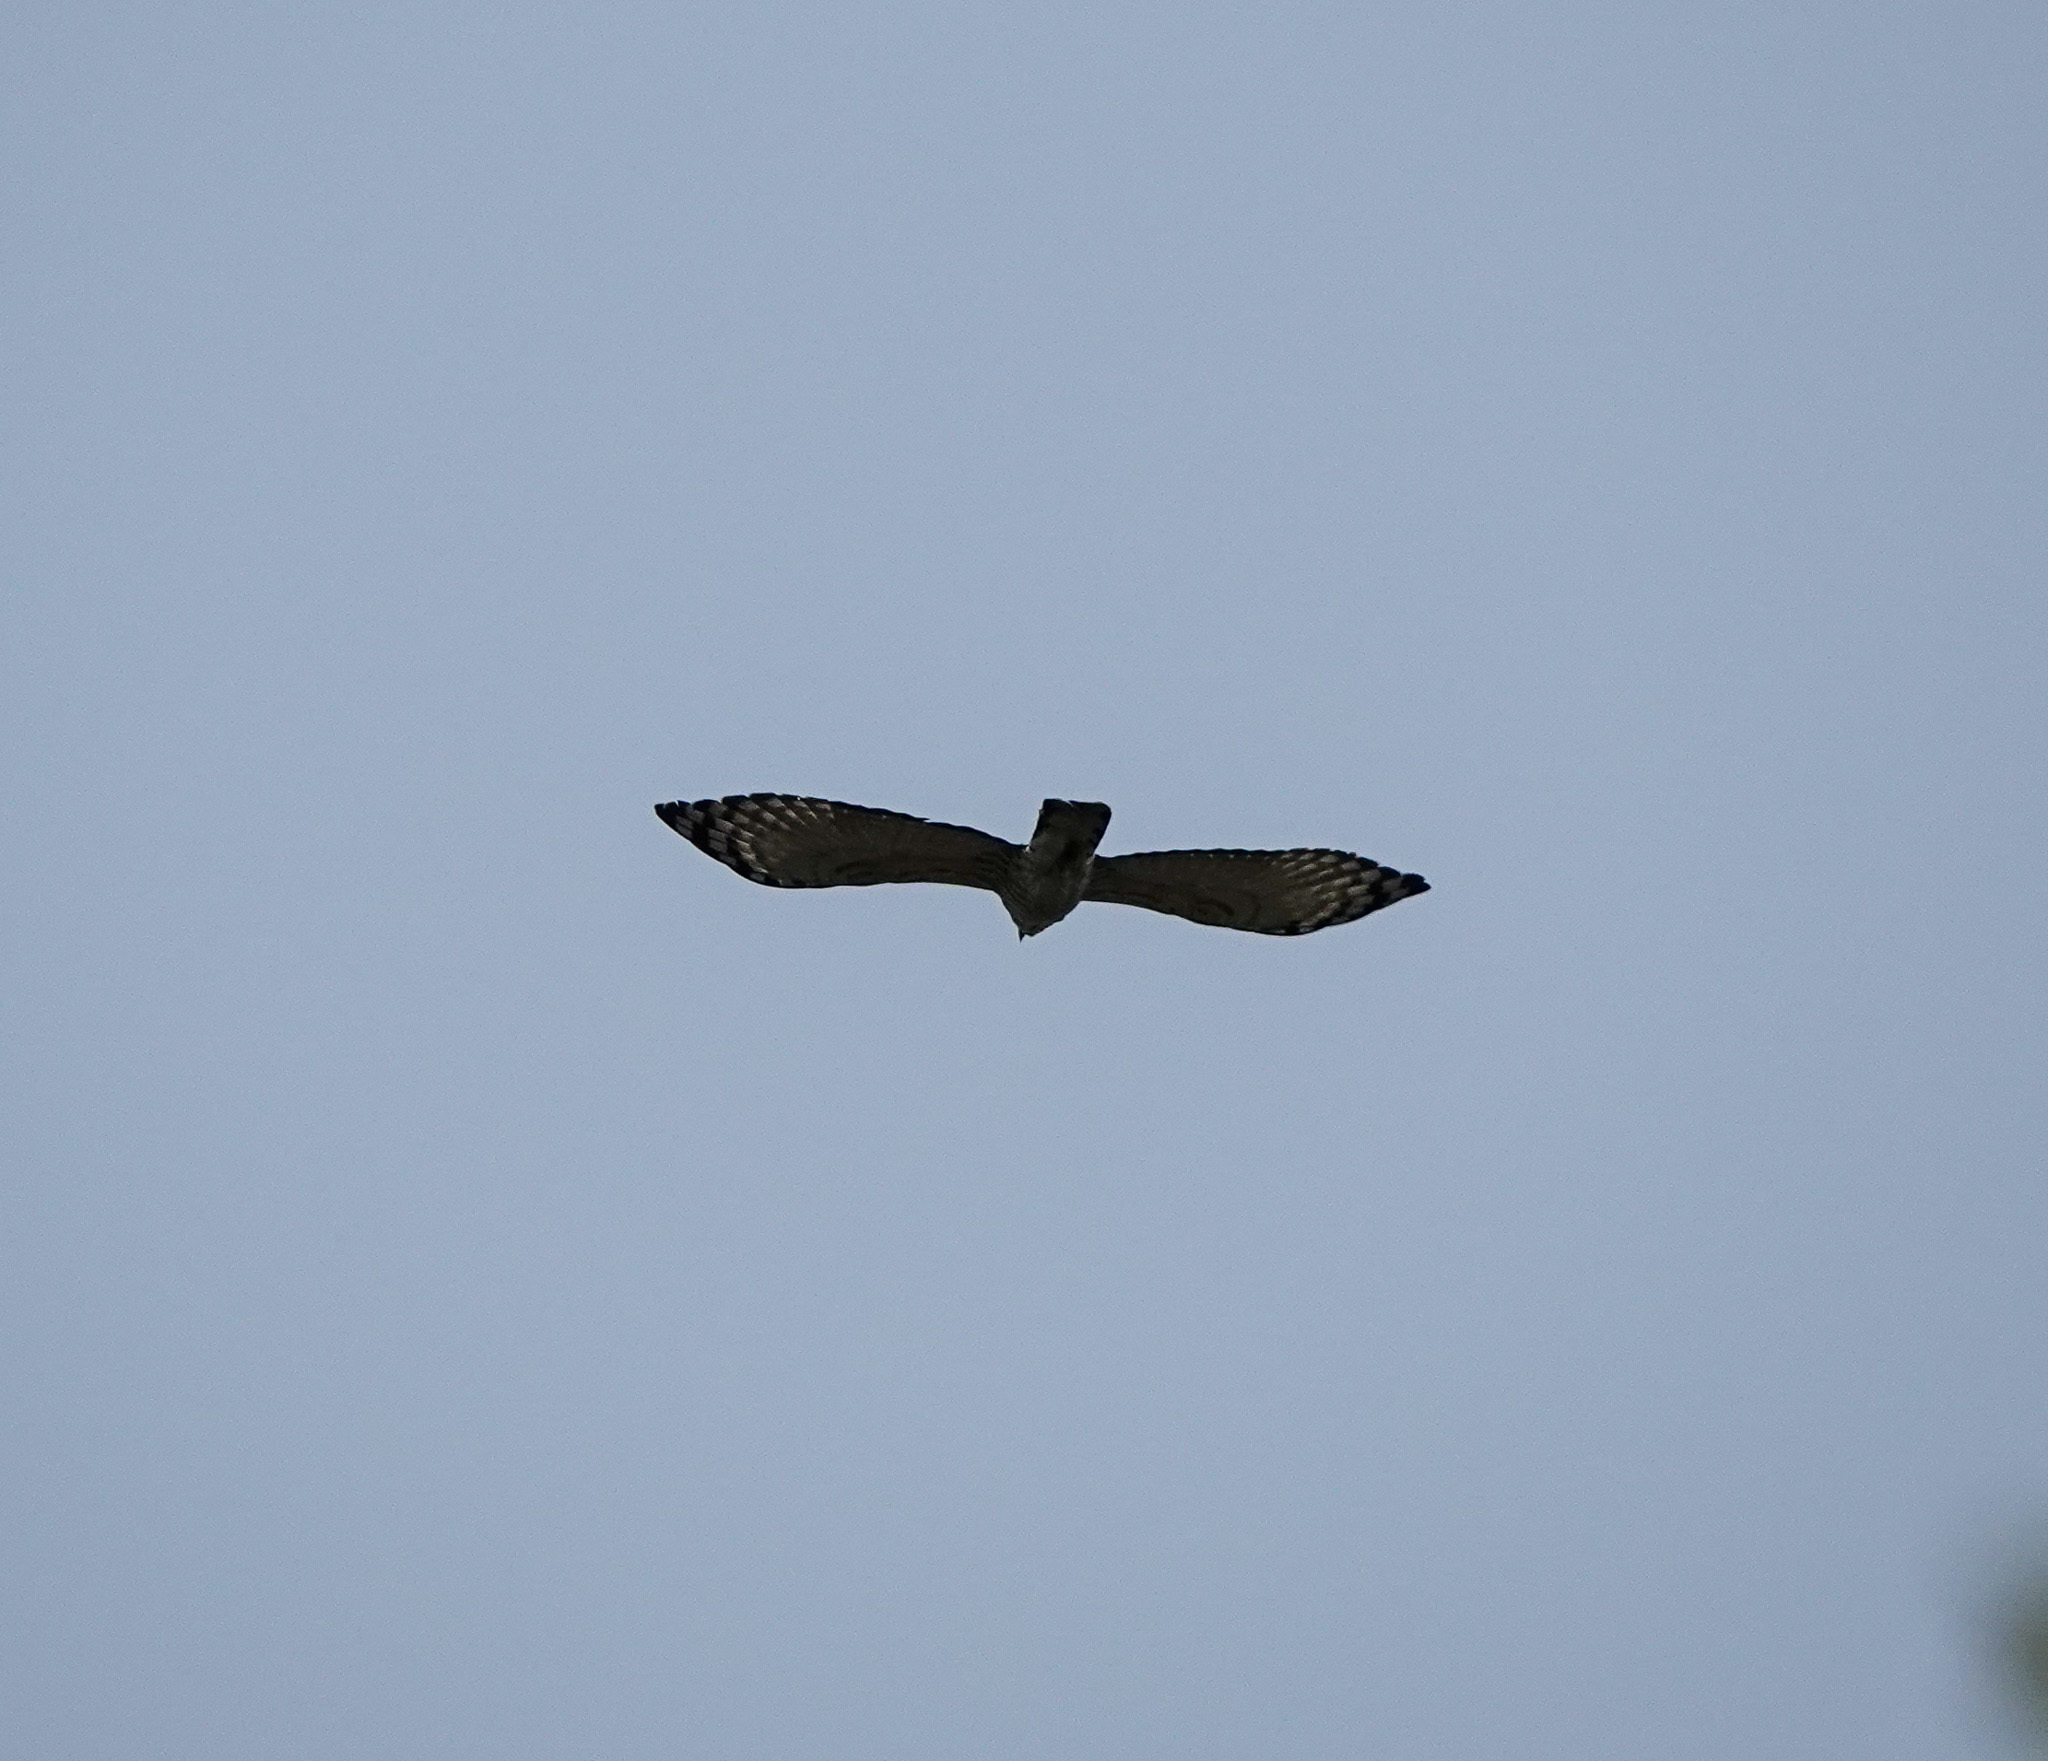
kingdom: Animalia
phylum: Chordata
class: Aves
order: Accipitriformes
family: Accipitridae
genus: Nisaetus
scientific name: Nisaetus nipalensis
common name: Mountain hawk-eagle
